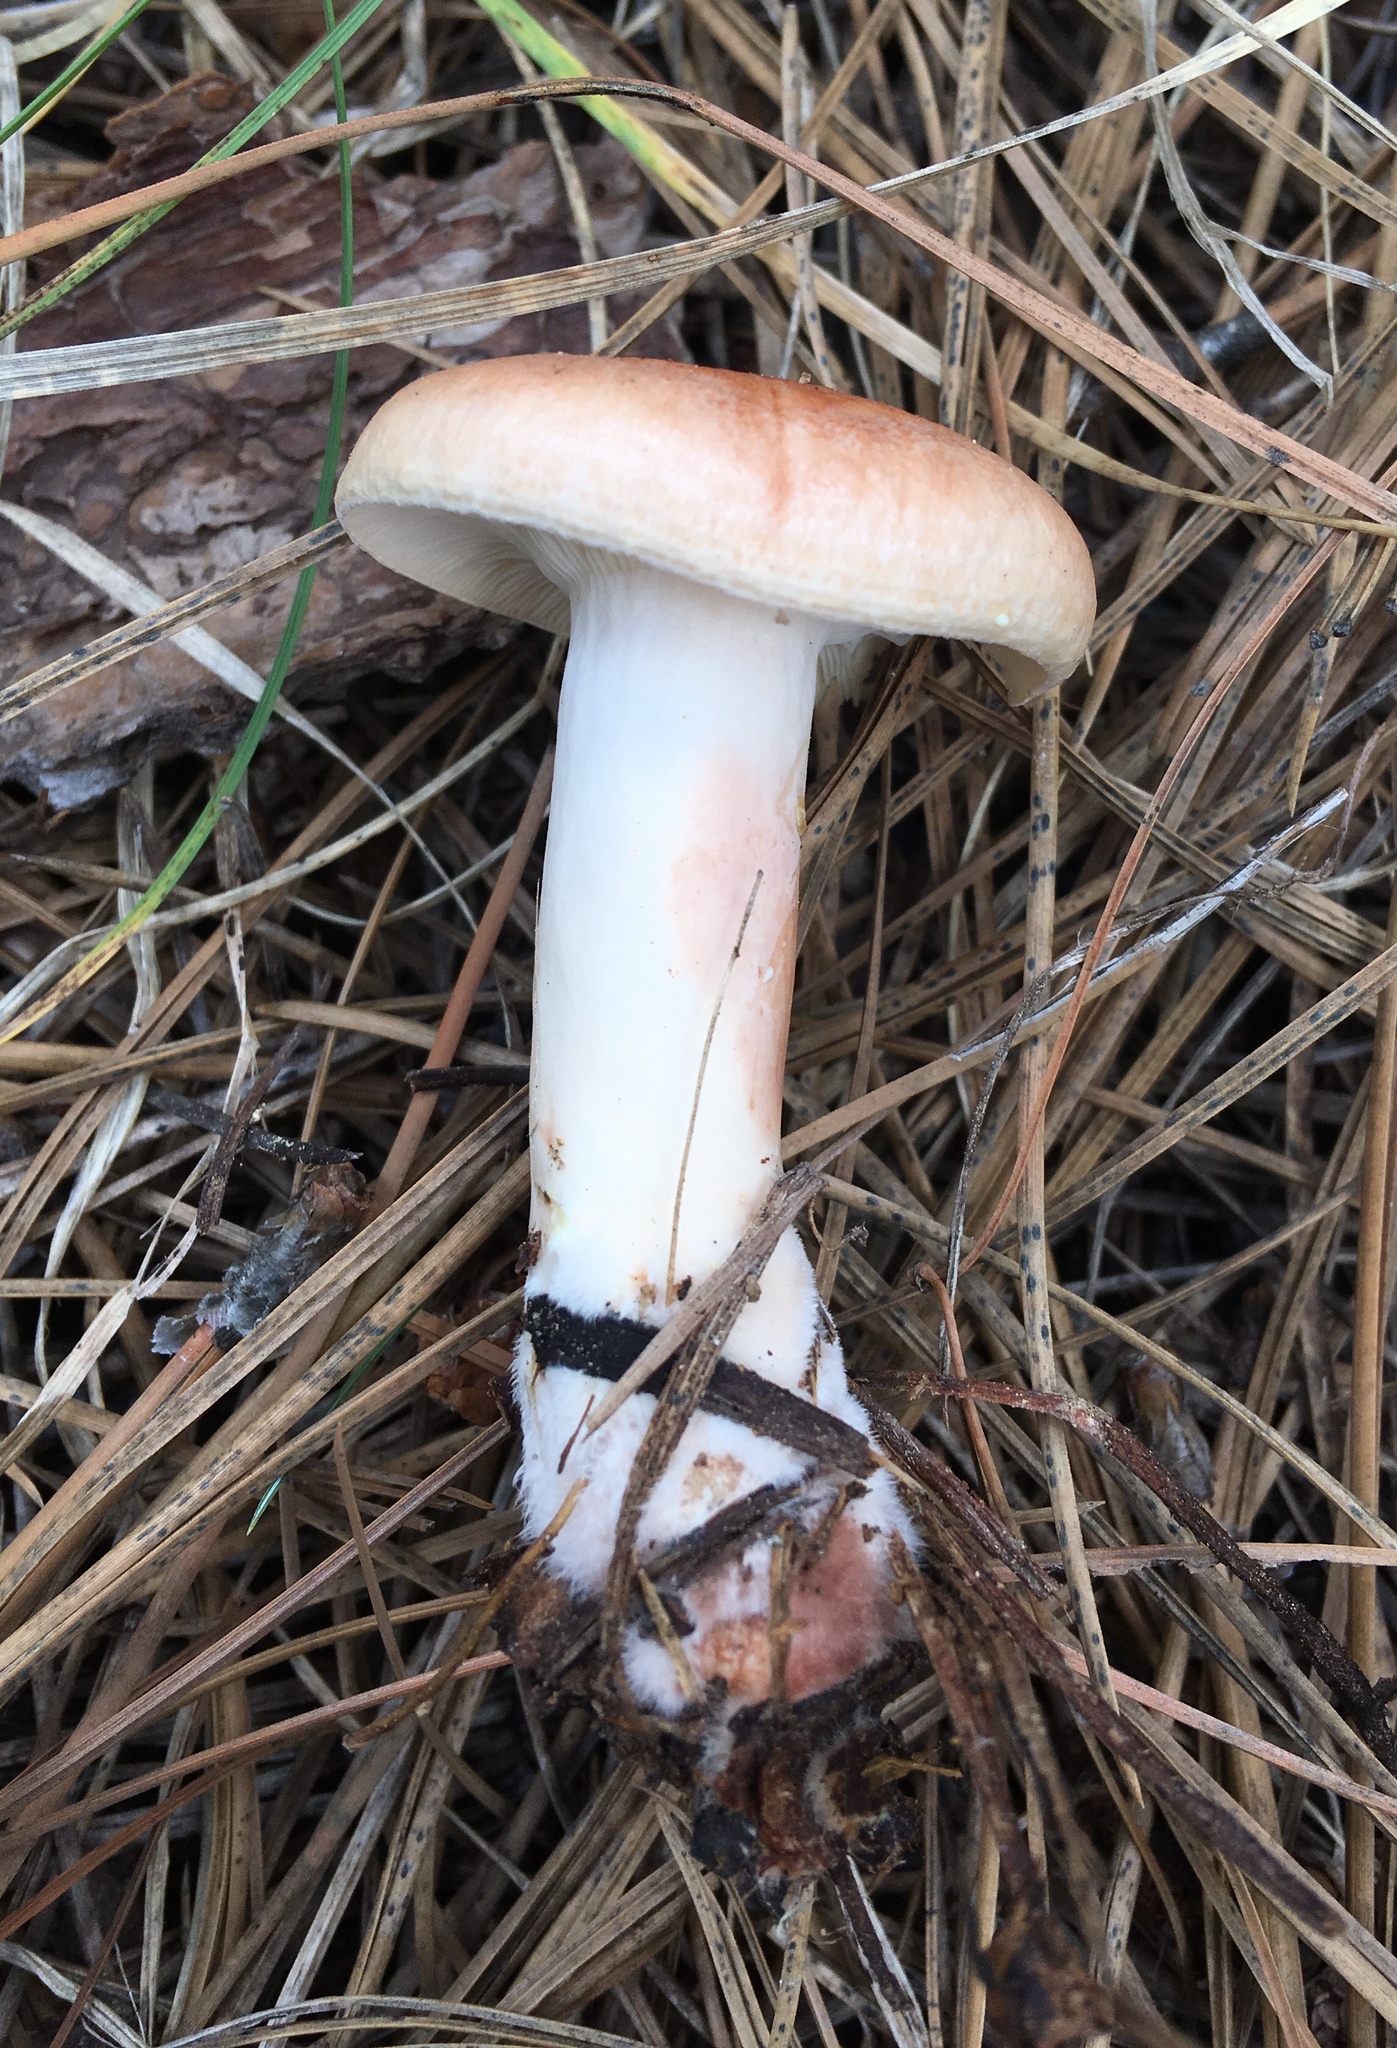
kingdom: Fungi
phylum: Basidiomycota
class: Agaricomycetes
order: Russulales
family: Russulaceae
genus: Lactarius
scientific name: Lactarius vinaceorufescens
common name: Yellow-latex milkcap
